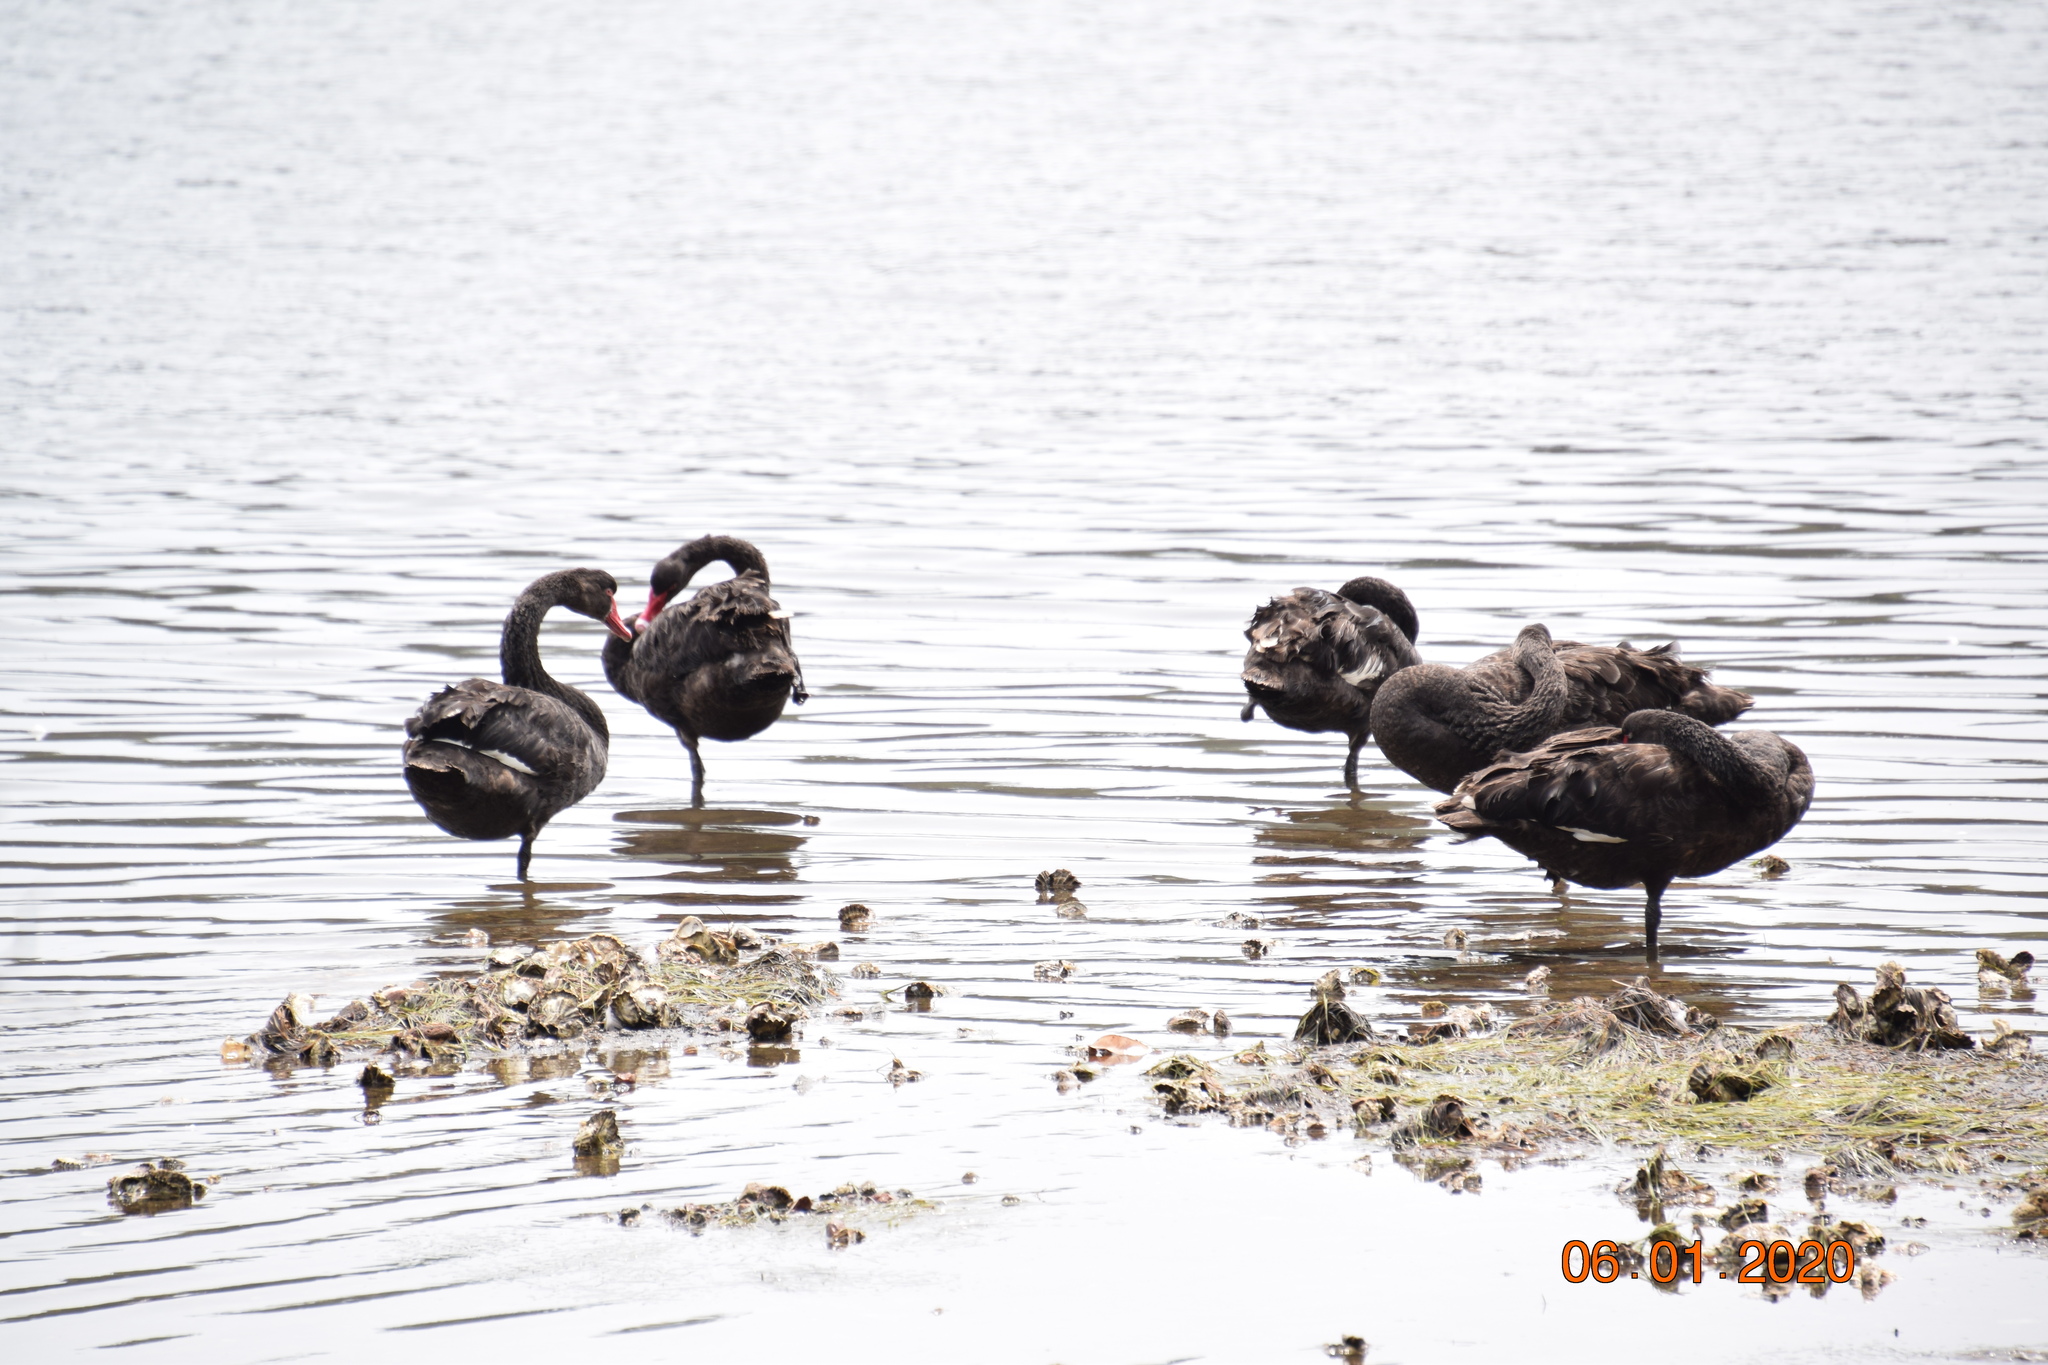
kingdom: Animalia
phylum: Chordata
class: Aves
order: Anseriformes
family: Anatidae
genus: Cygnus
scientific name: Cygnus atratus
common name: Black swan
